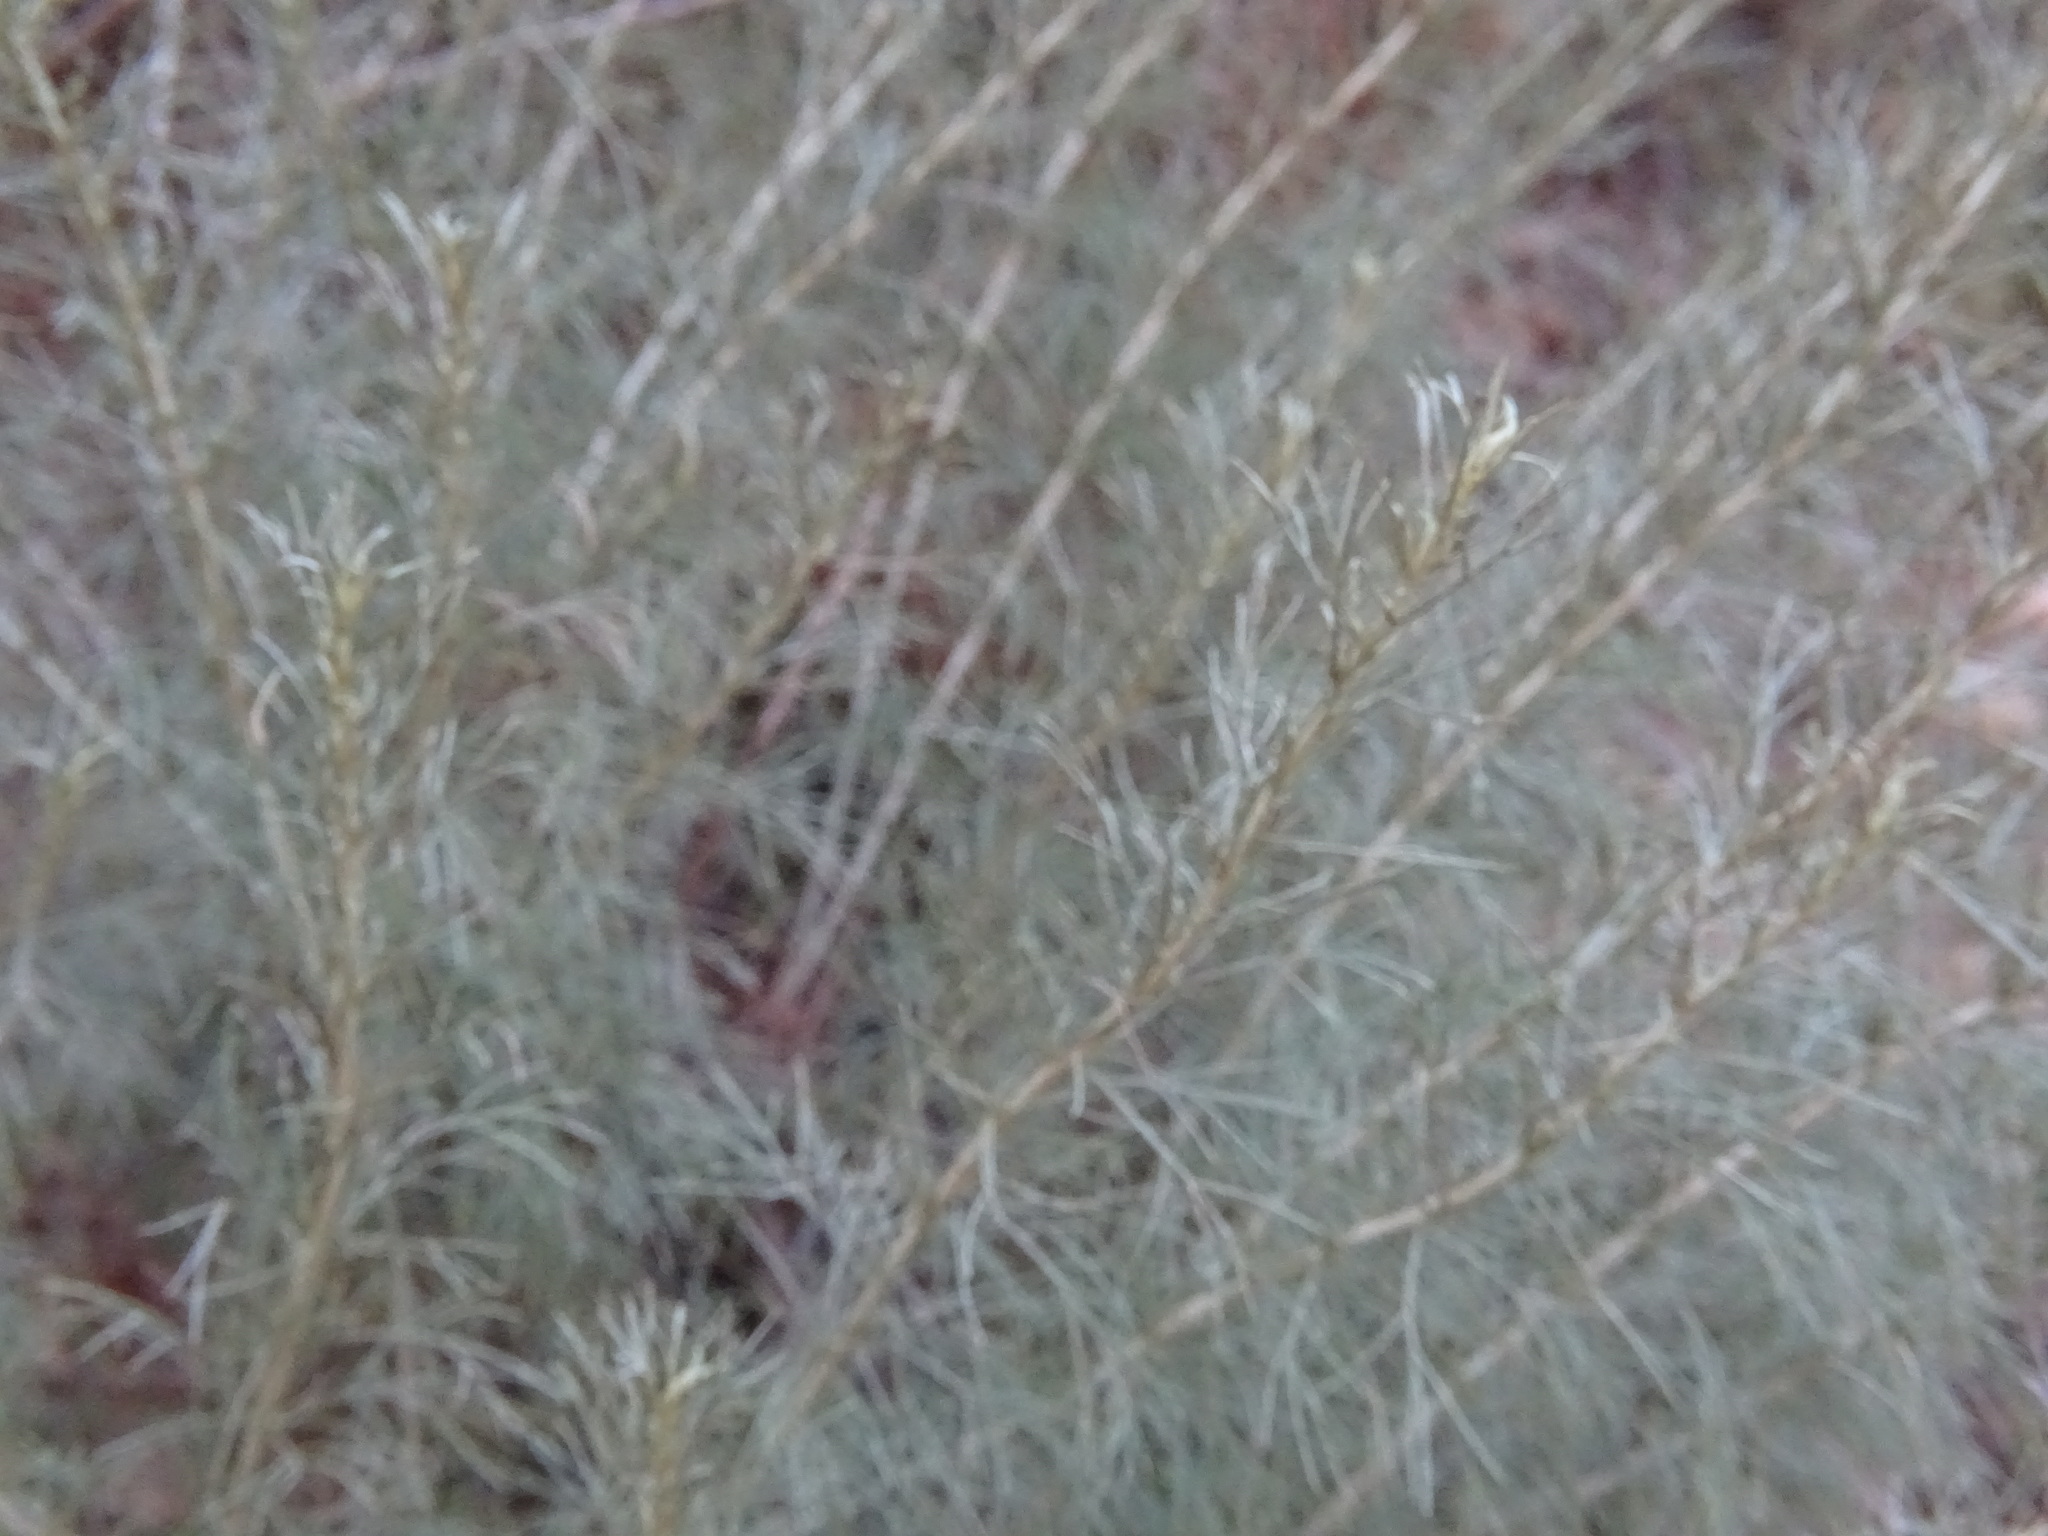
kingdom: Plantae
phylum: Tracheophyta
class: Magnoliopsida
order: Asterales
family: Asteraceae
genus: Artemisia
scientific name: Artemisia californica
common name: California sagebrush
